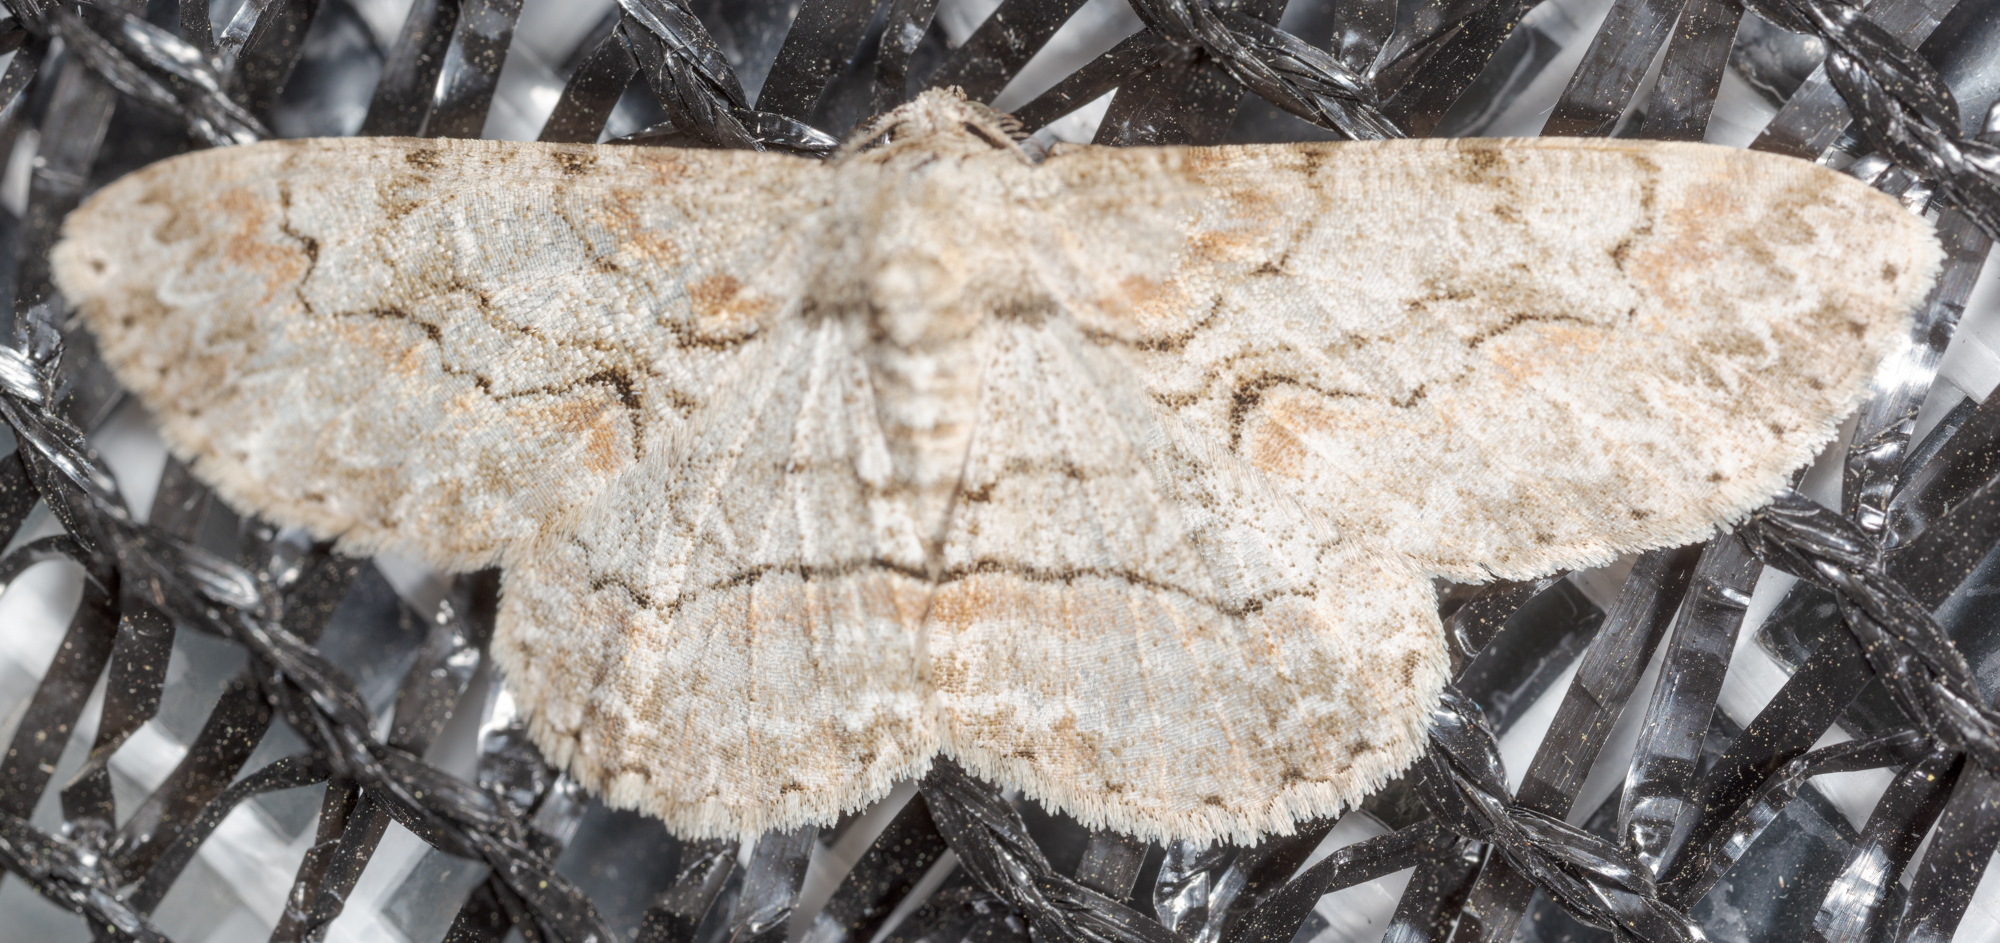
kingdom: Animalia
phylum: Arthropoda
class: Insecta
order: Lepidoptera
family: Geometridae
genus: Iridopsis
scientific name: Iridopsis defectaria
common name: Brown-shaded gray
